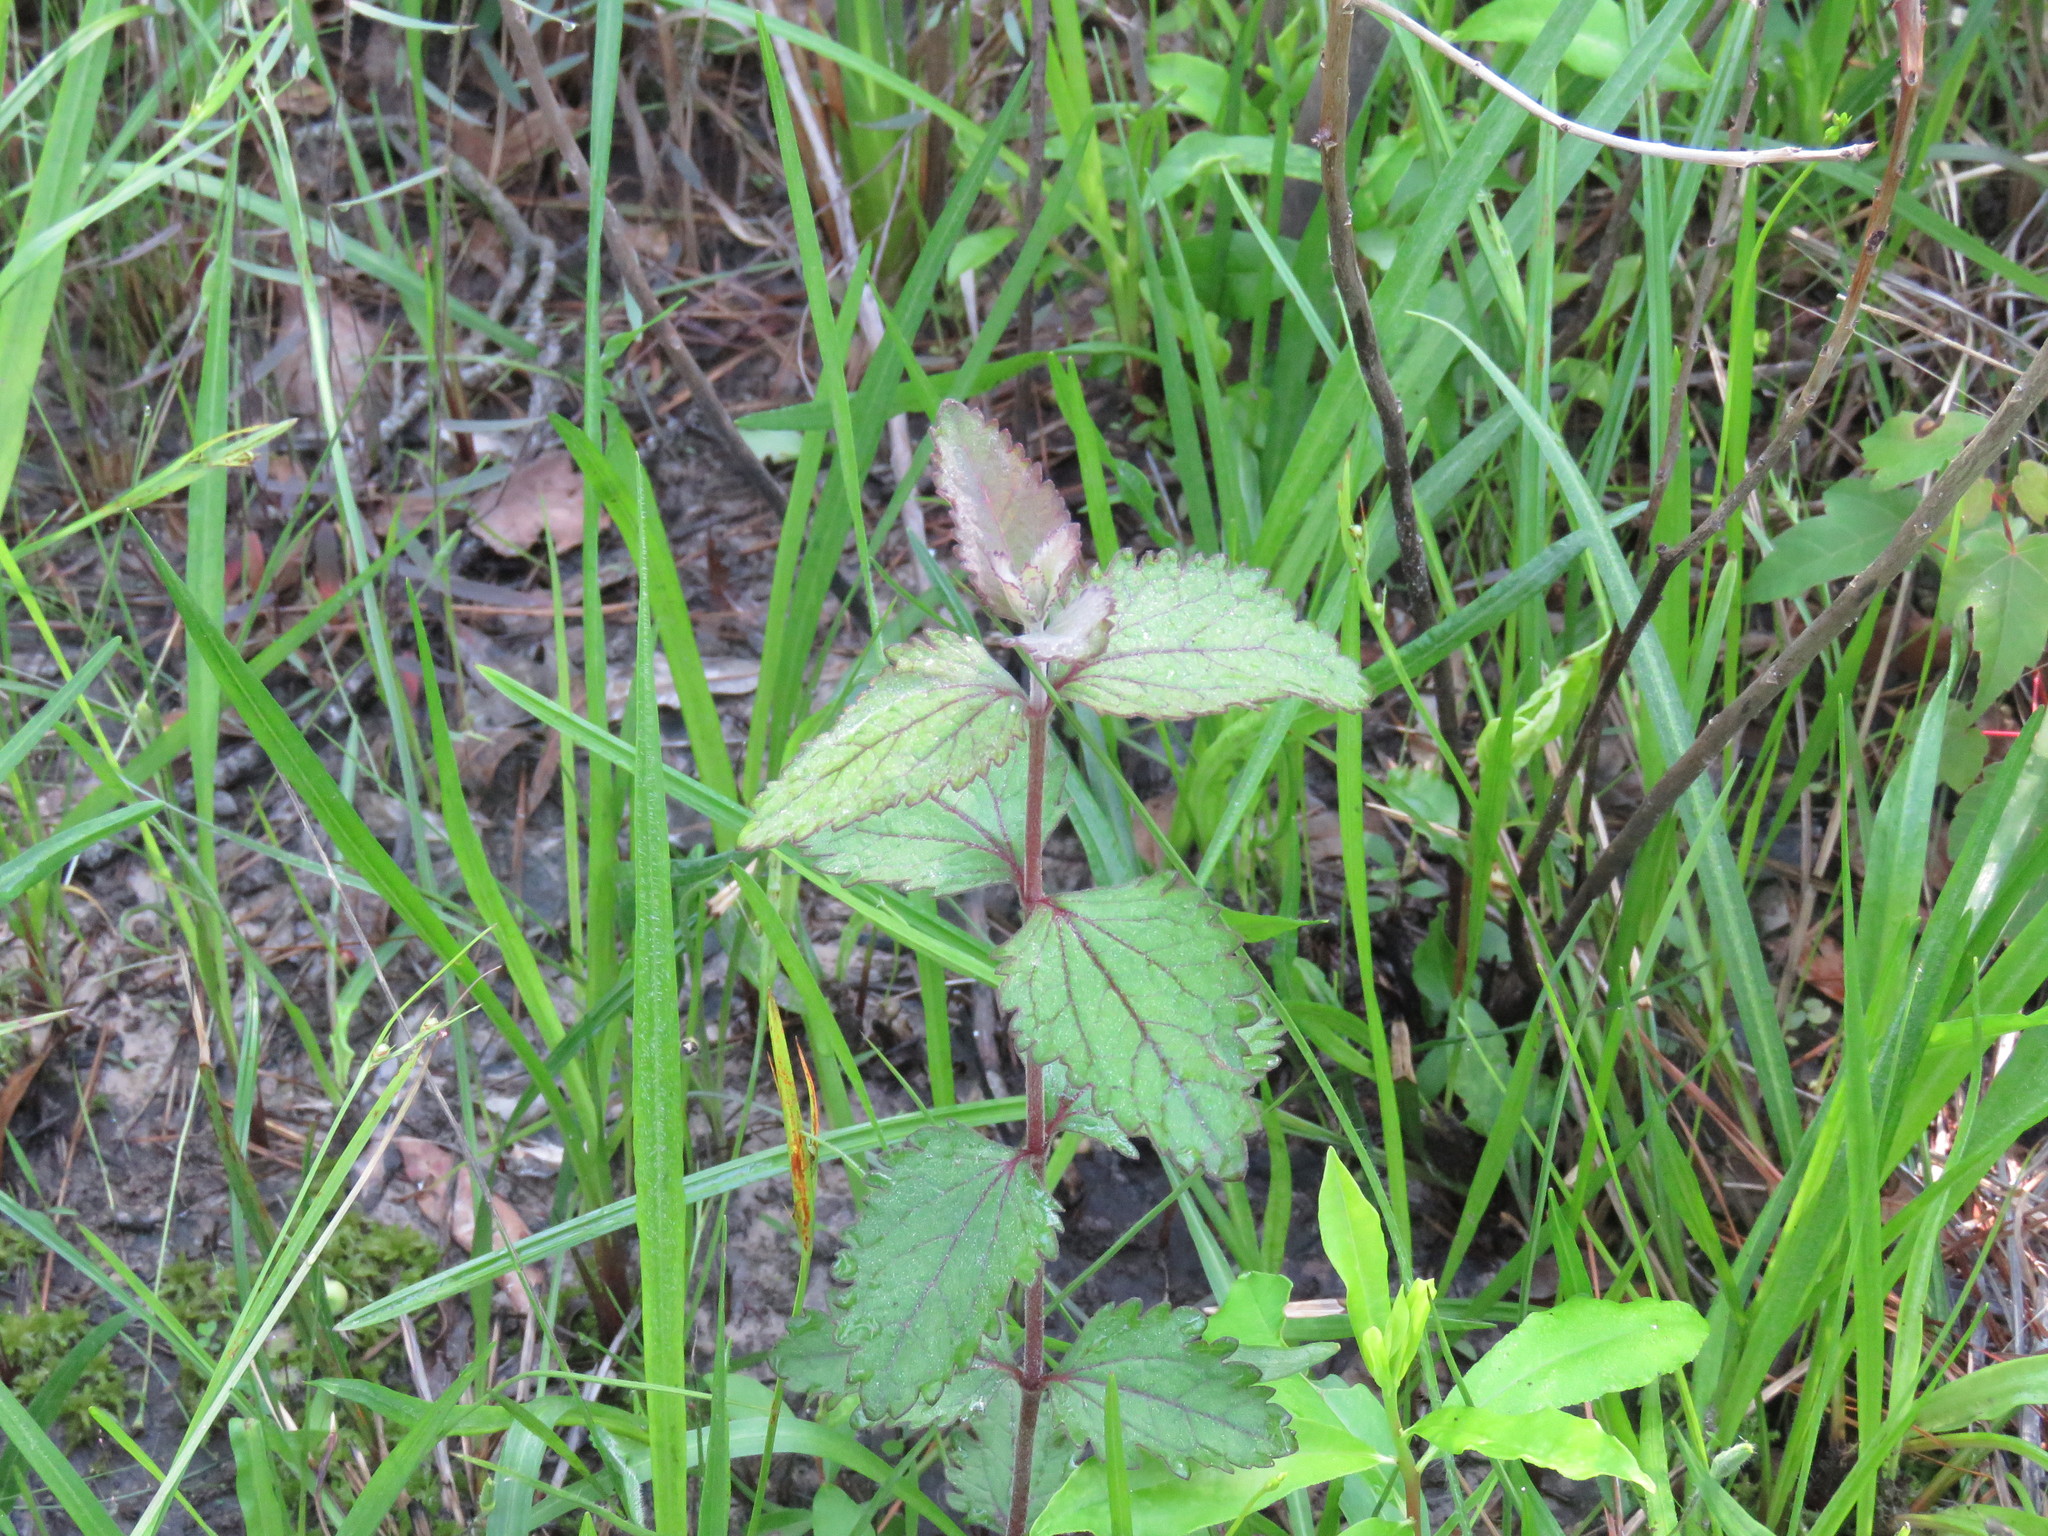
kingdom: Plantae
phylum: Tracheophyta
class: Magnoliopsida
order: Asterales
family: Asteraceae
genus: Eupatorium
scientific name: Eupatorium rotundifolium
